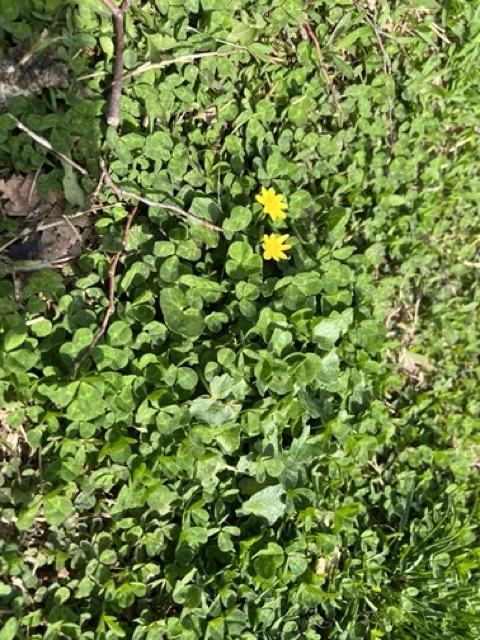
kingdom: Plantae
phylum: Tracheophyta
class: Magnoliopsida
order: Ranunculales
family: Ranunculaceae
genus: Ficaria
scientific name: Ficaria verna
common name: Lesser celandine
